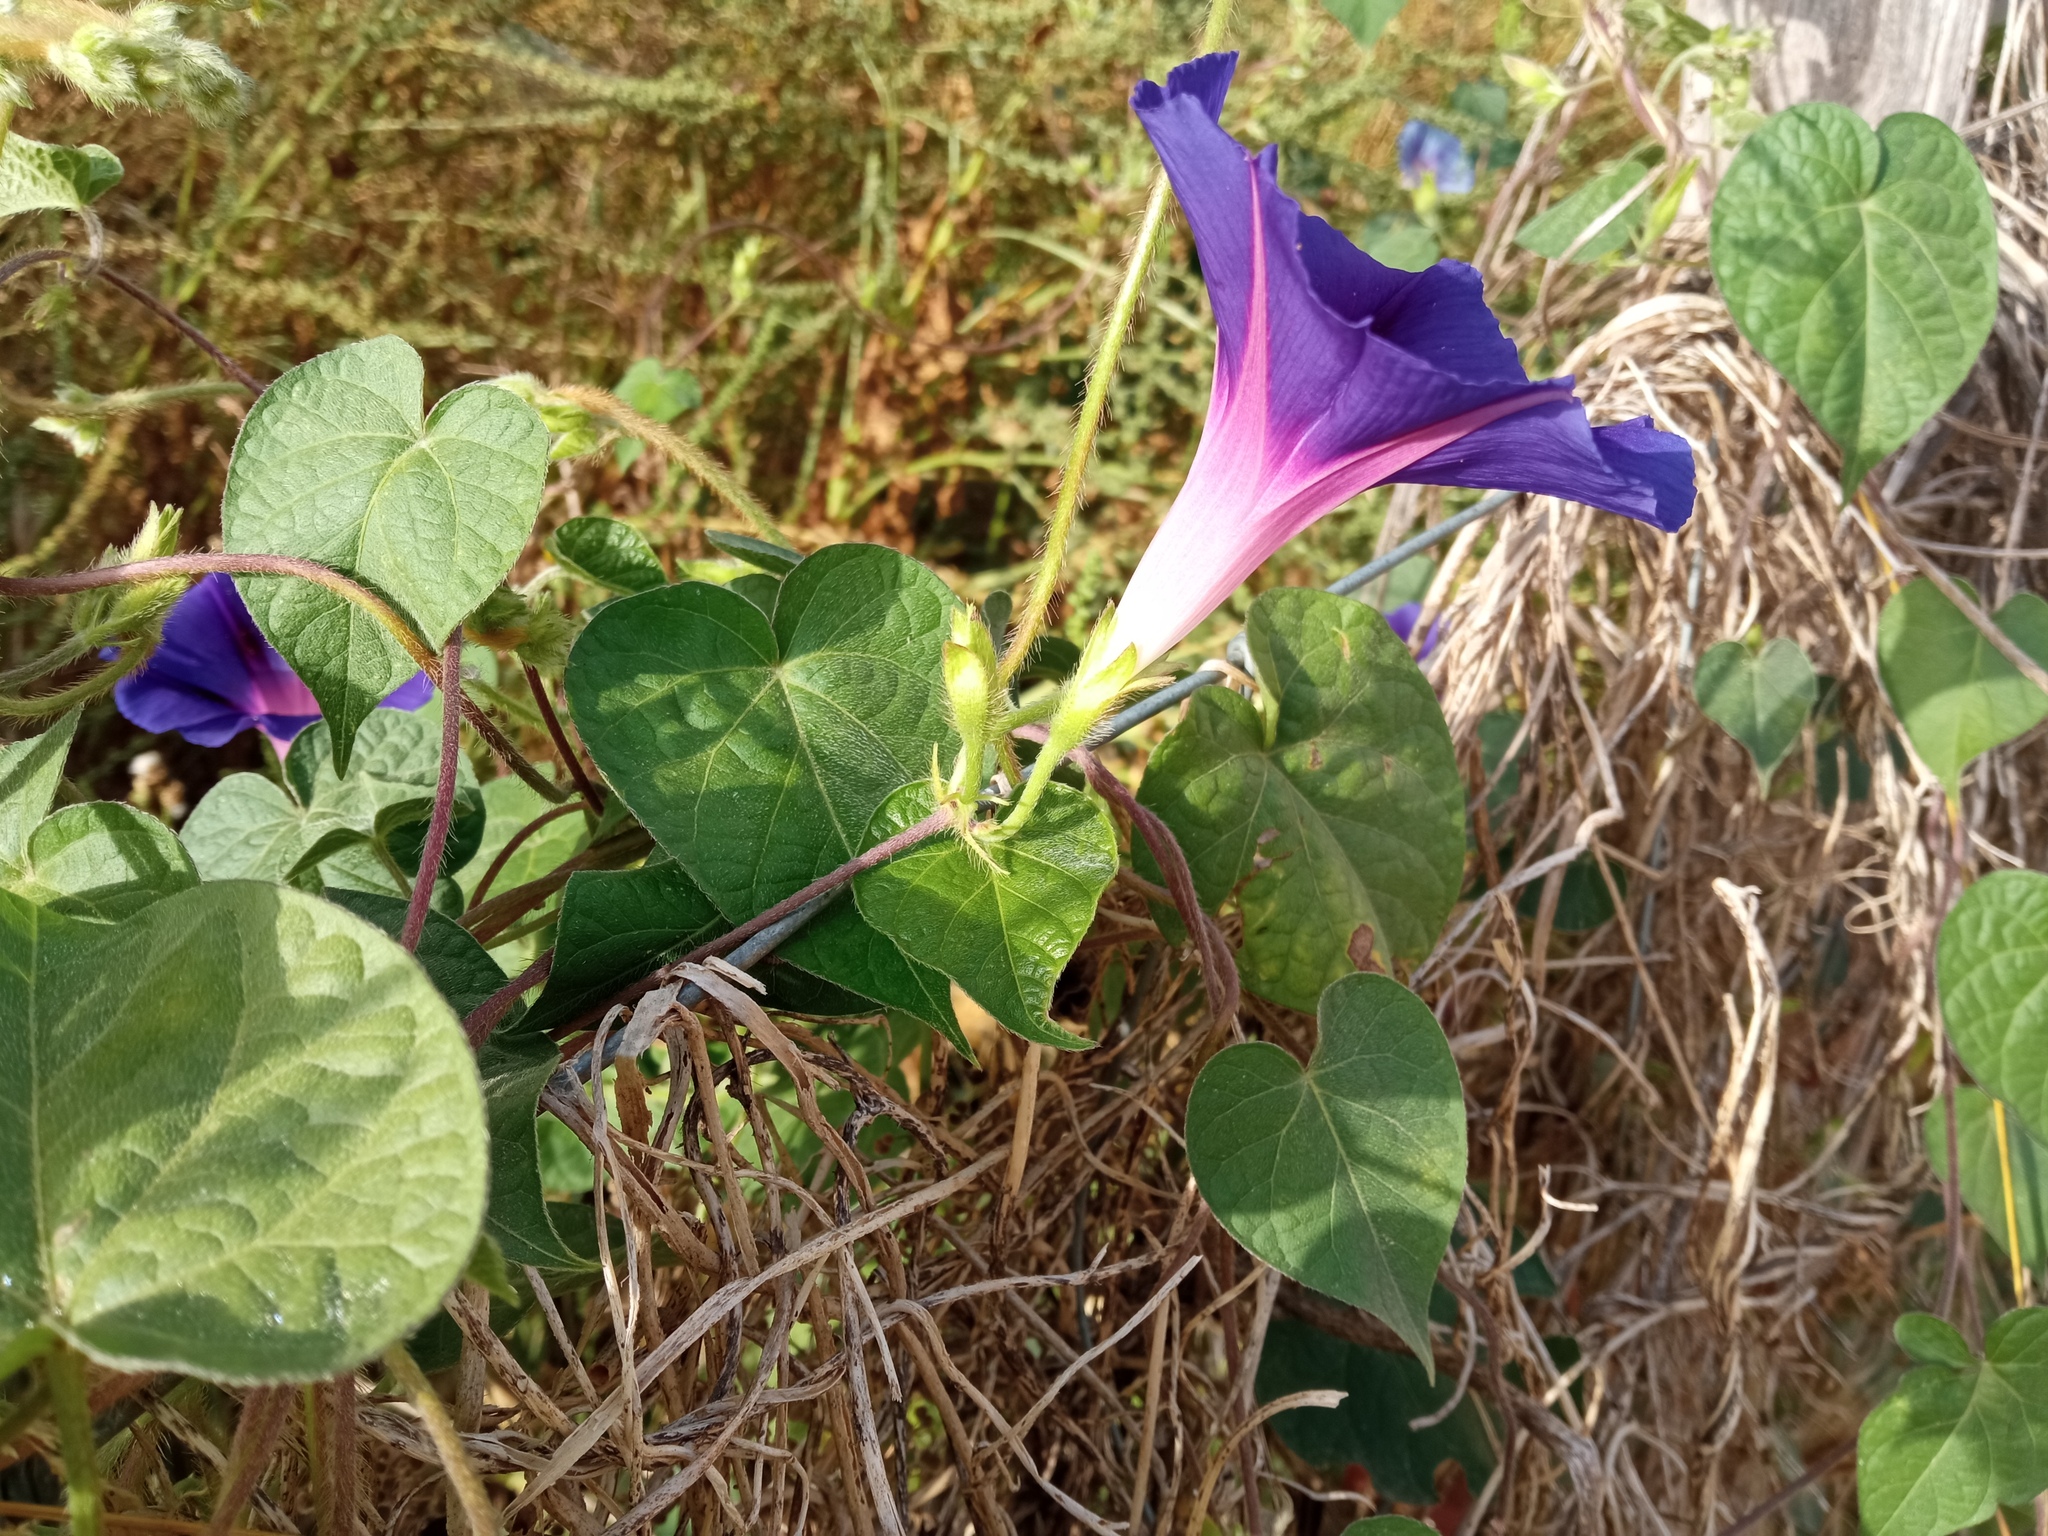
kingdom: Plantae
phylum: Tracheophyta
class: Magnoliopsida
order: Solanales
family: Convolvulaceae
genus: Ipomoea
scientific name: Ipomoea purpurea
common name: Common morning-glory
